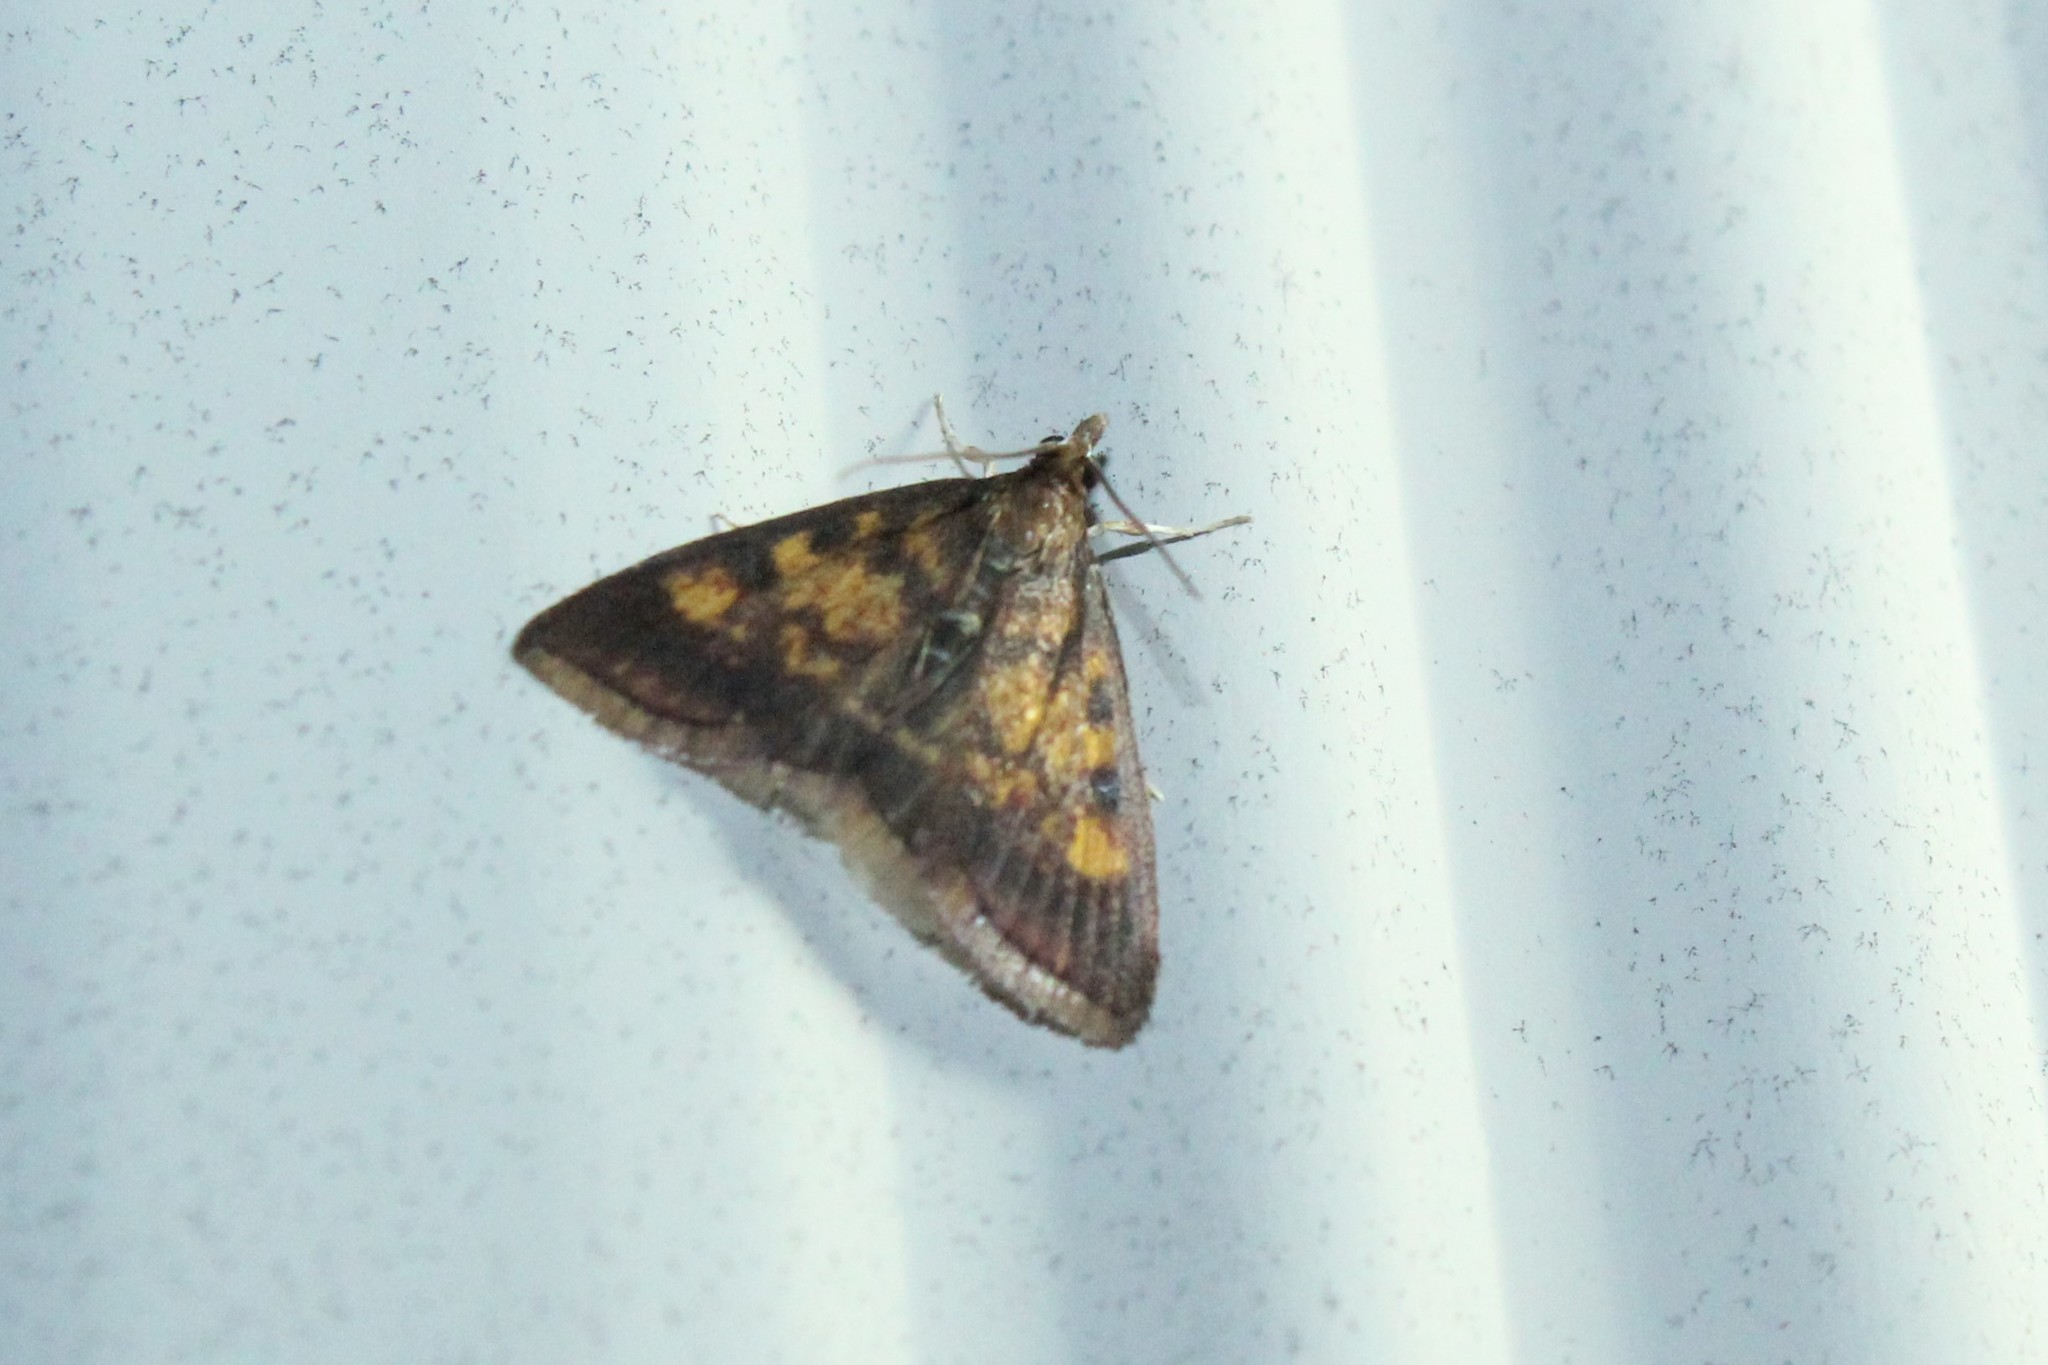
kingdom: Animalia
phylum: Arthropoda
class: Insecta
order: Lepidoptera
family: Crambidae
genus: Pyrausta
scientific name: Pyrausta acrionalis
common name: Mint-loving pyrausta moth
